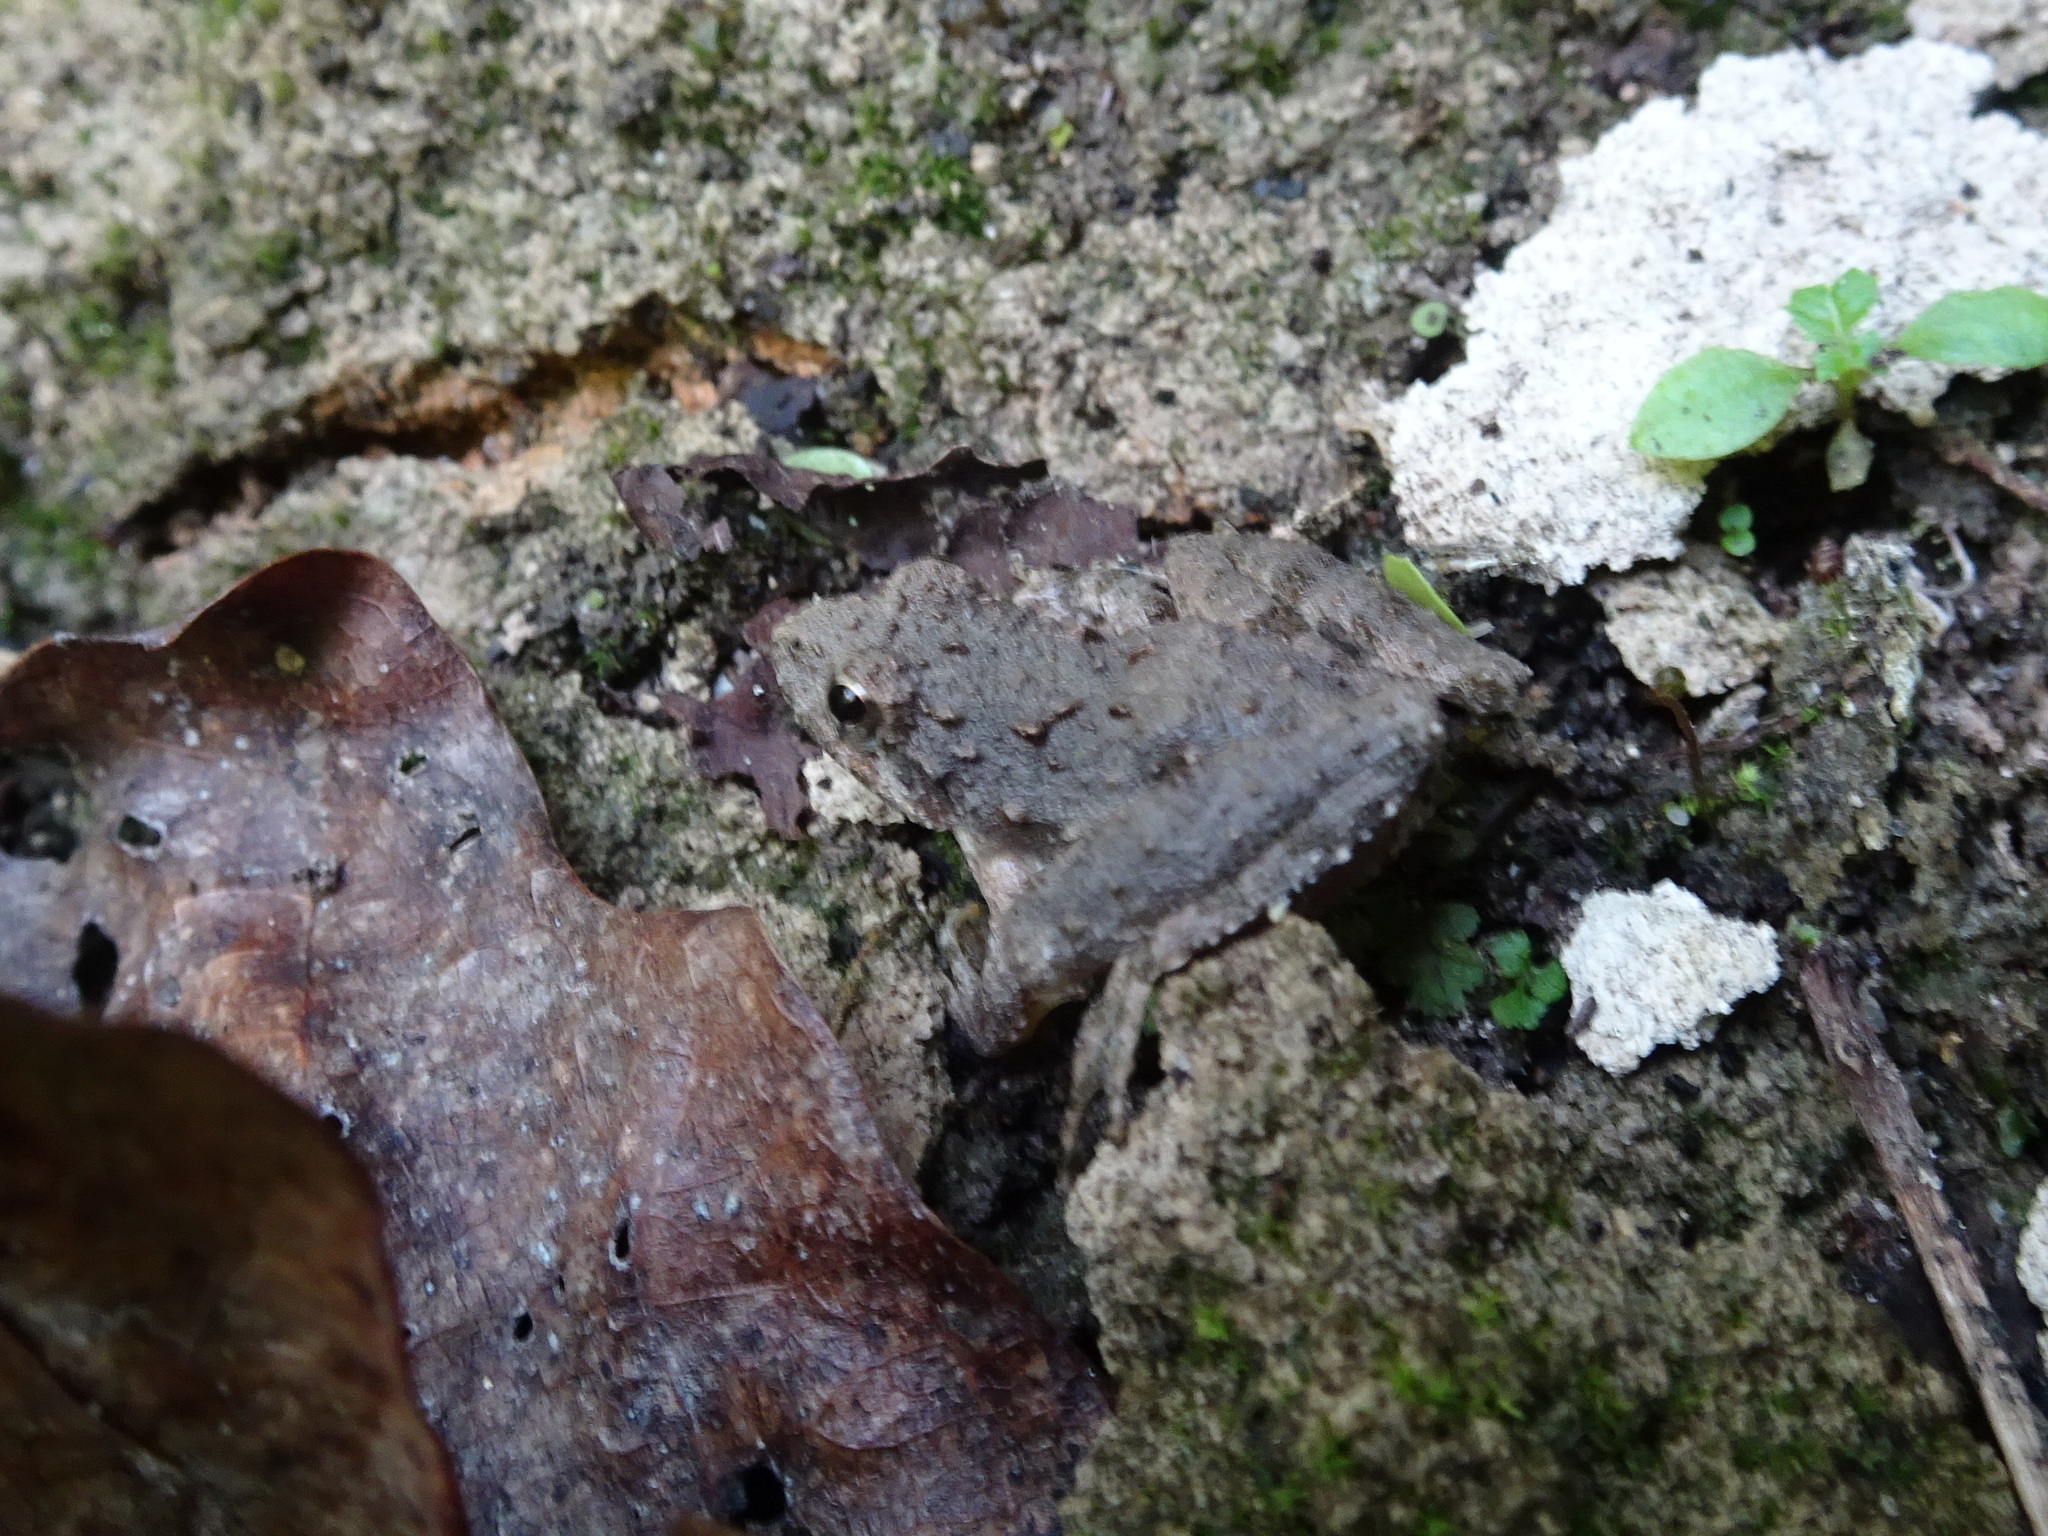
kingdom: Animalia
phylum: Chordata
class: Amphibia
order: Anura
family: Hylidae
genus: Acris
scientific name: Acris blanchardi
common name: Blanchard's cricket frog
